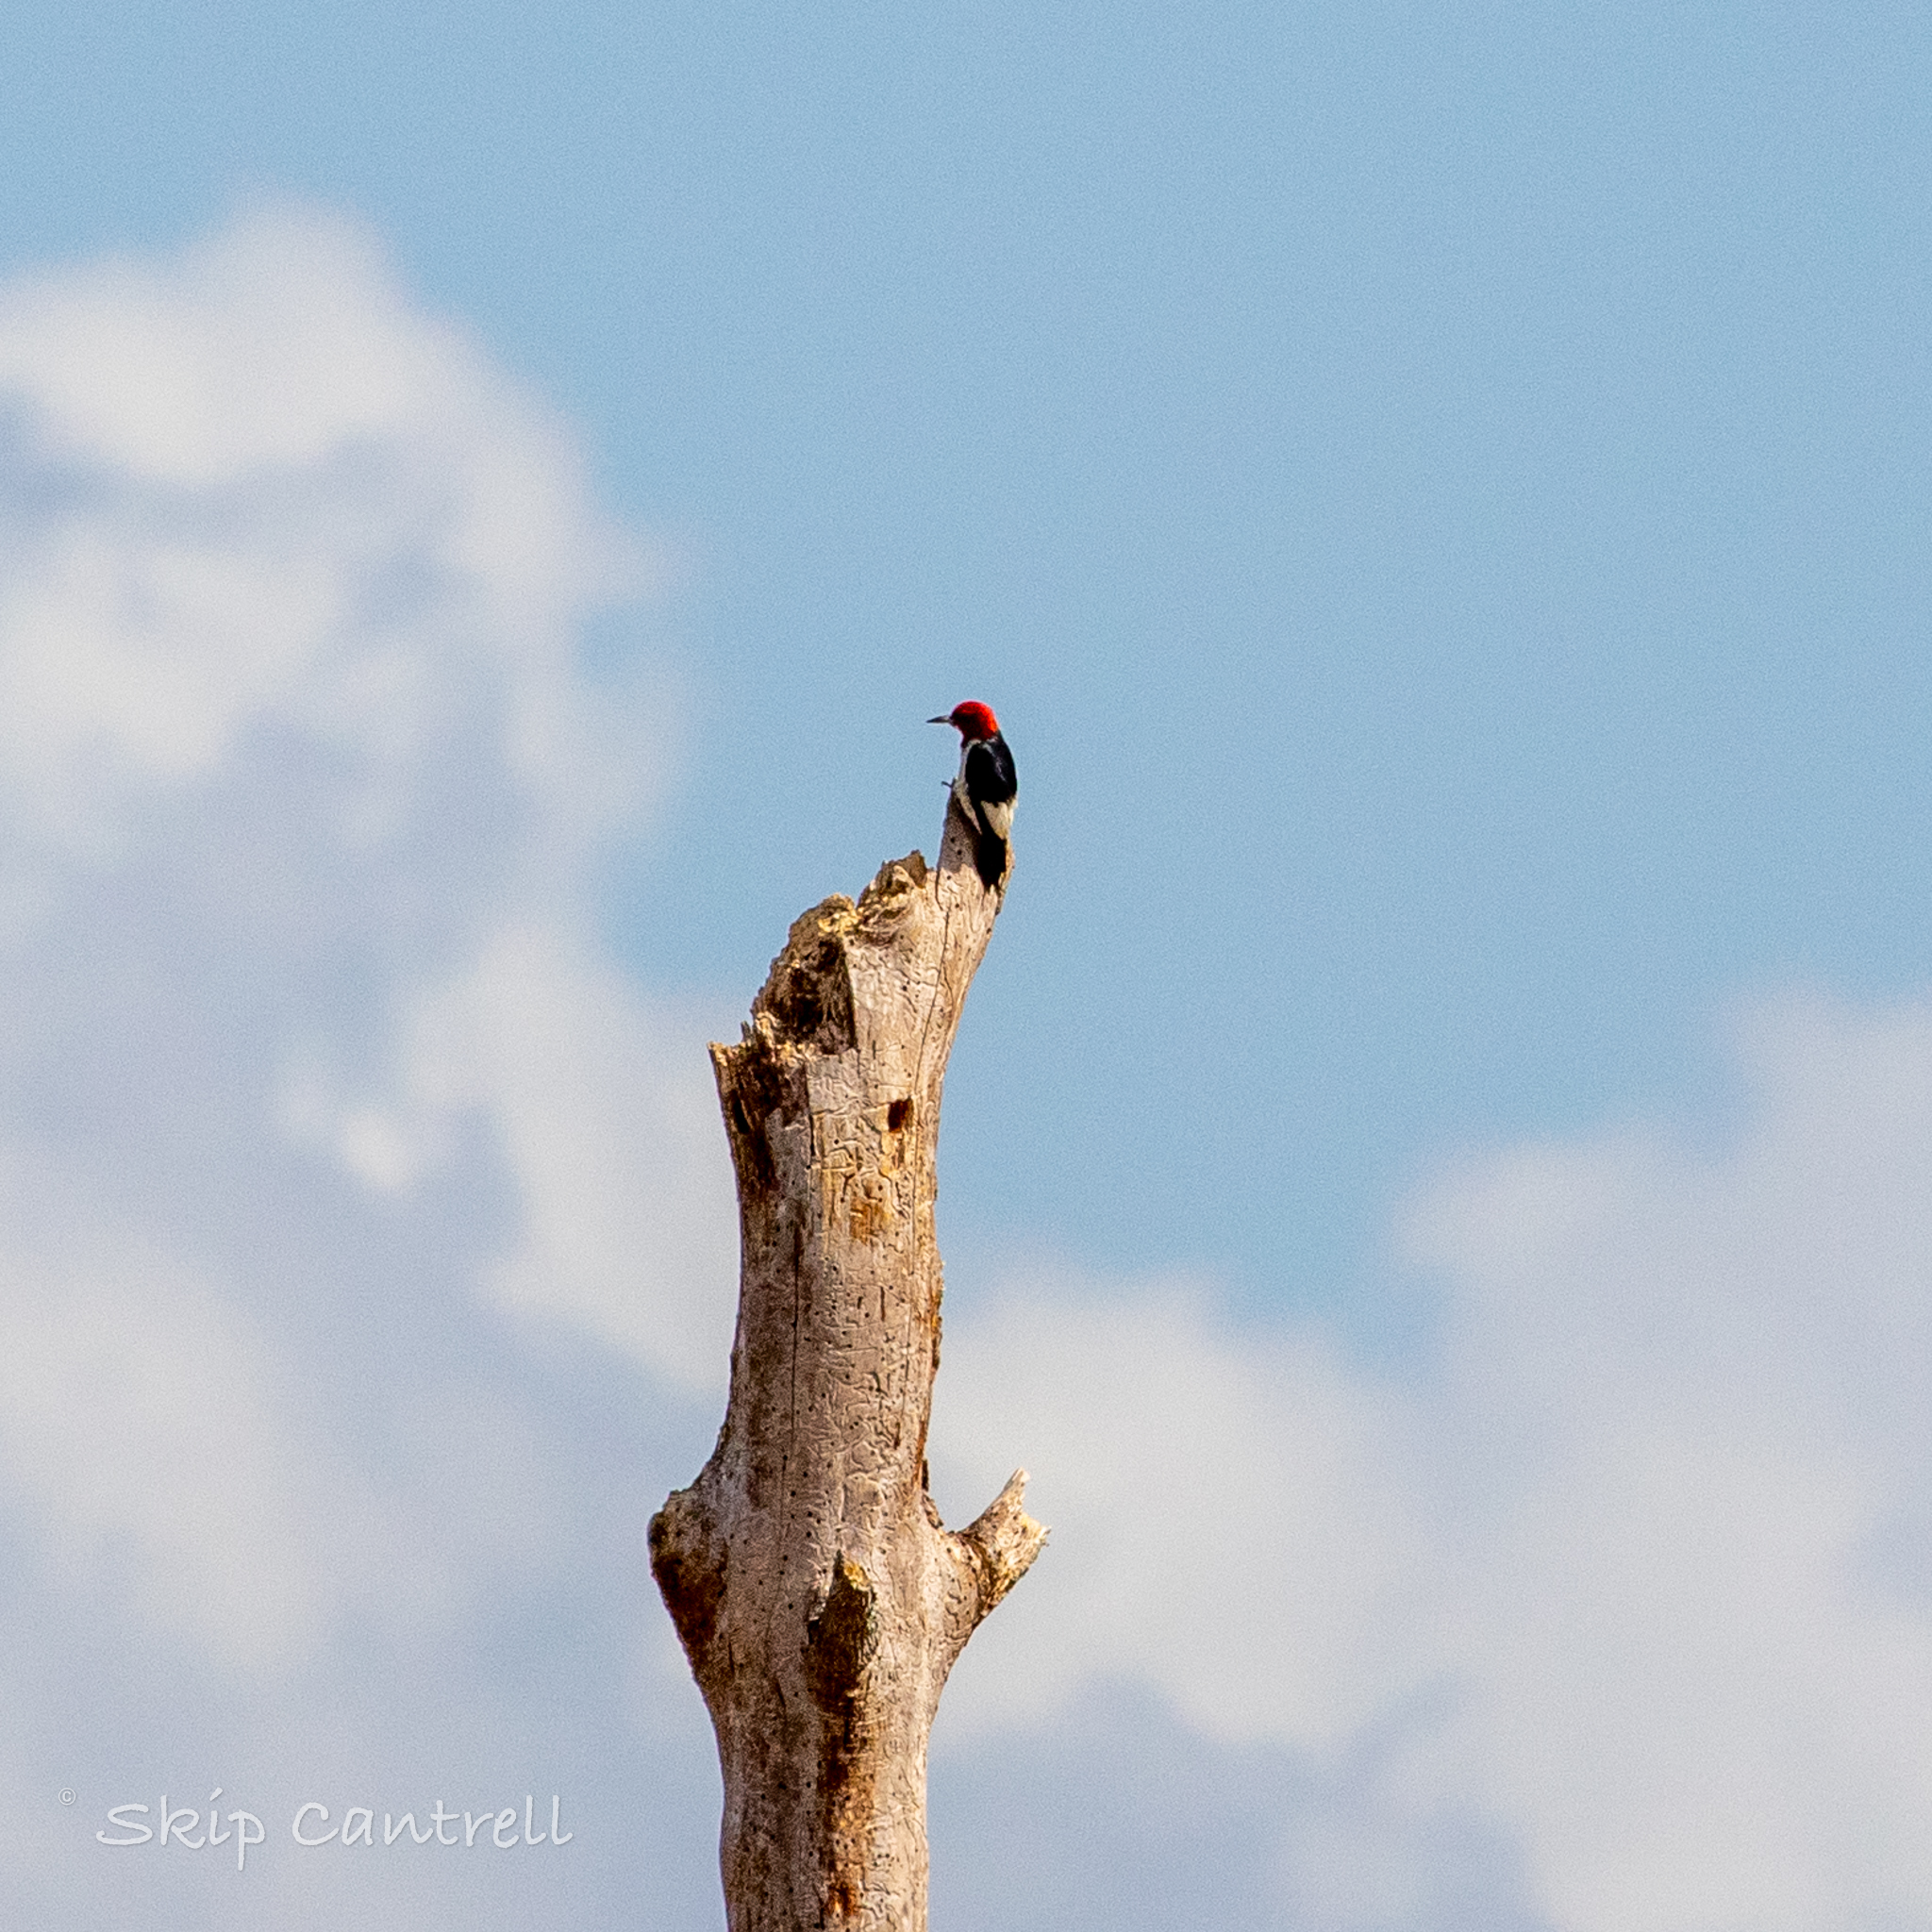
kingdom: Animalia
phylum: Chordata
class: Aves
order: Piciformes
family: Picidae
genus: Melanerpes
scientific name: Melanerpes erythrocephalus
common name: Red-headed woodpecker
